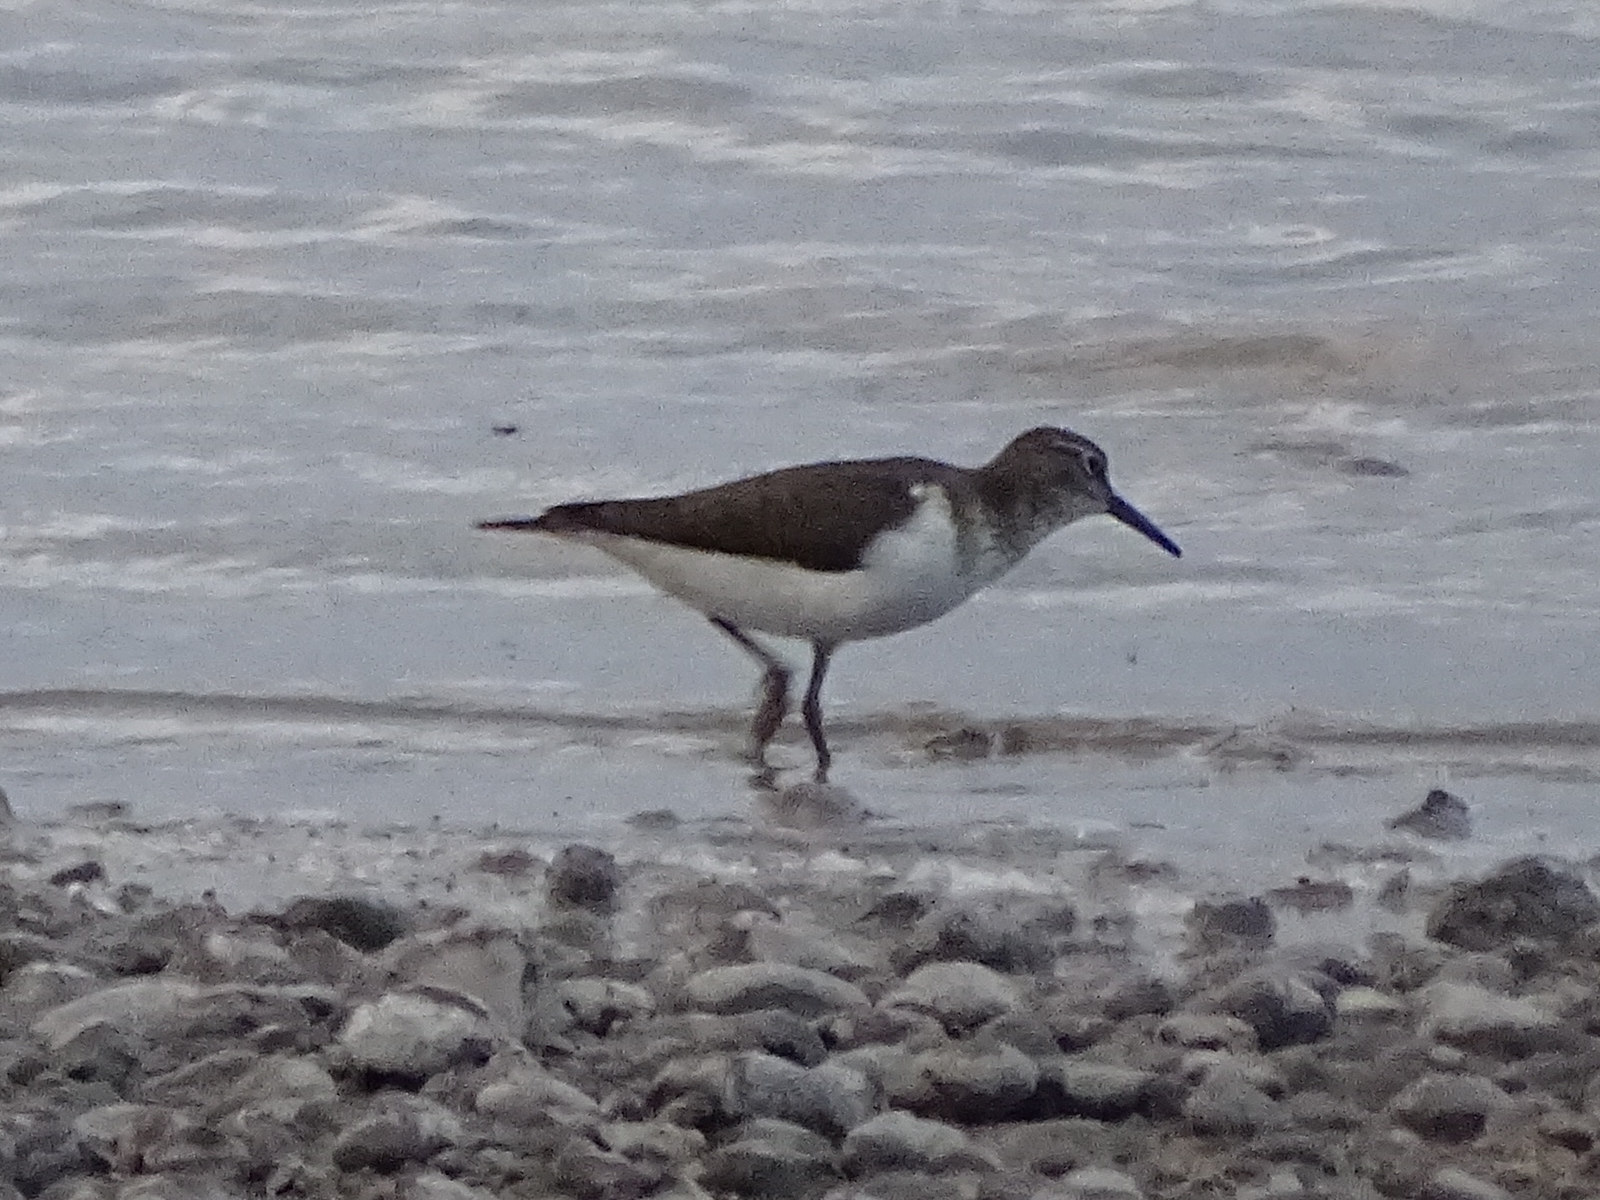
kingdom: Animalia
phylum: Chordata
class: Aves
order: Charadriiformes
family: Scolopacidae
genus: Actitis
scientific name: Actitis hypoleucos
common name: Common sandpiper
